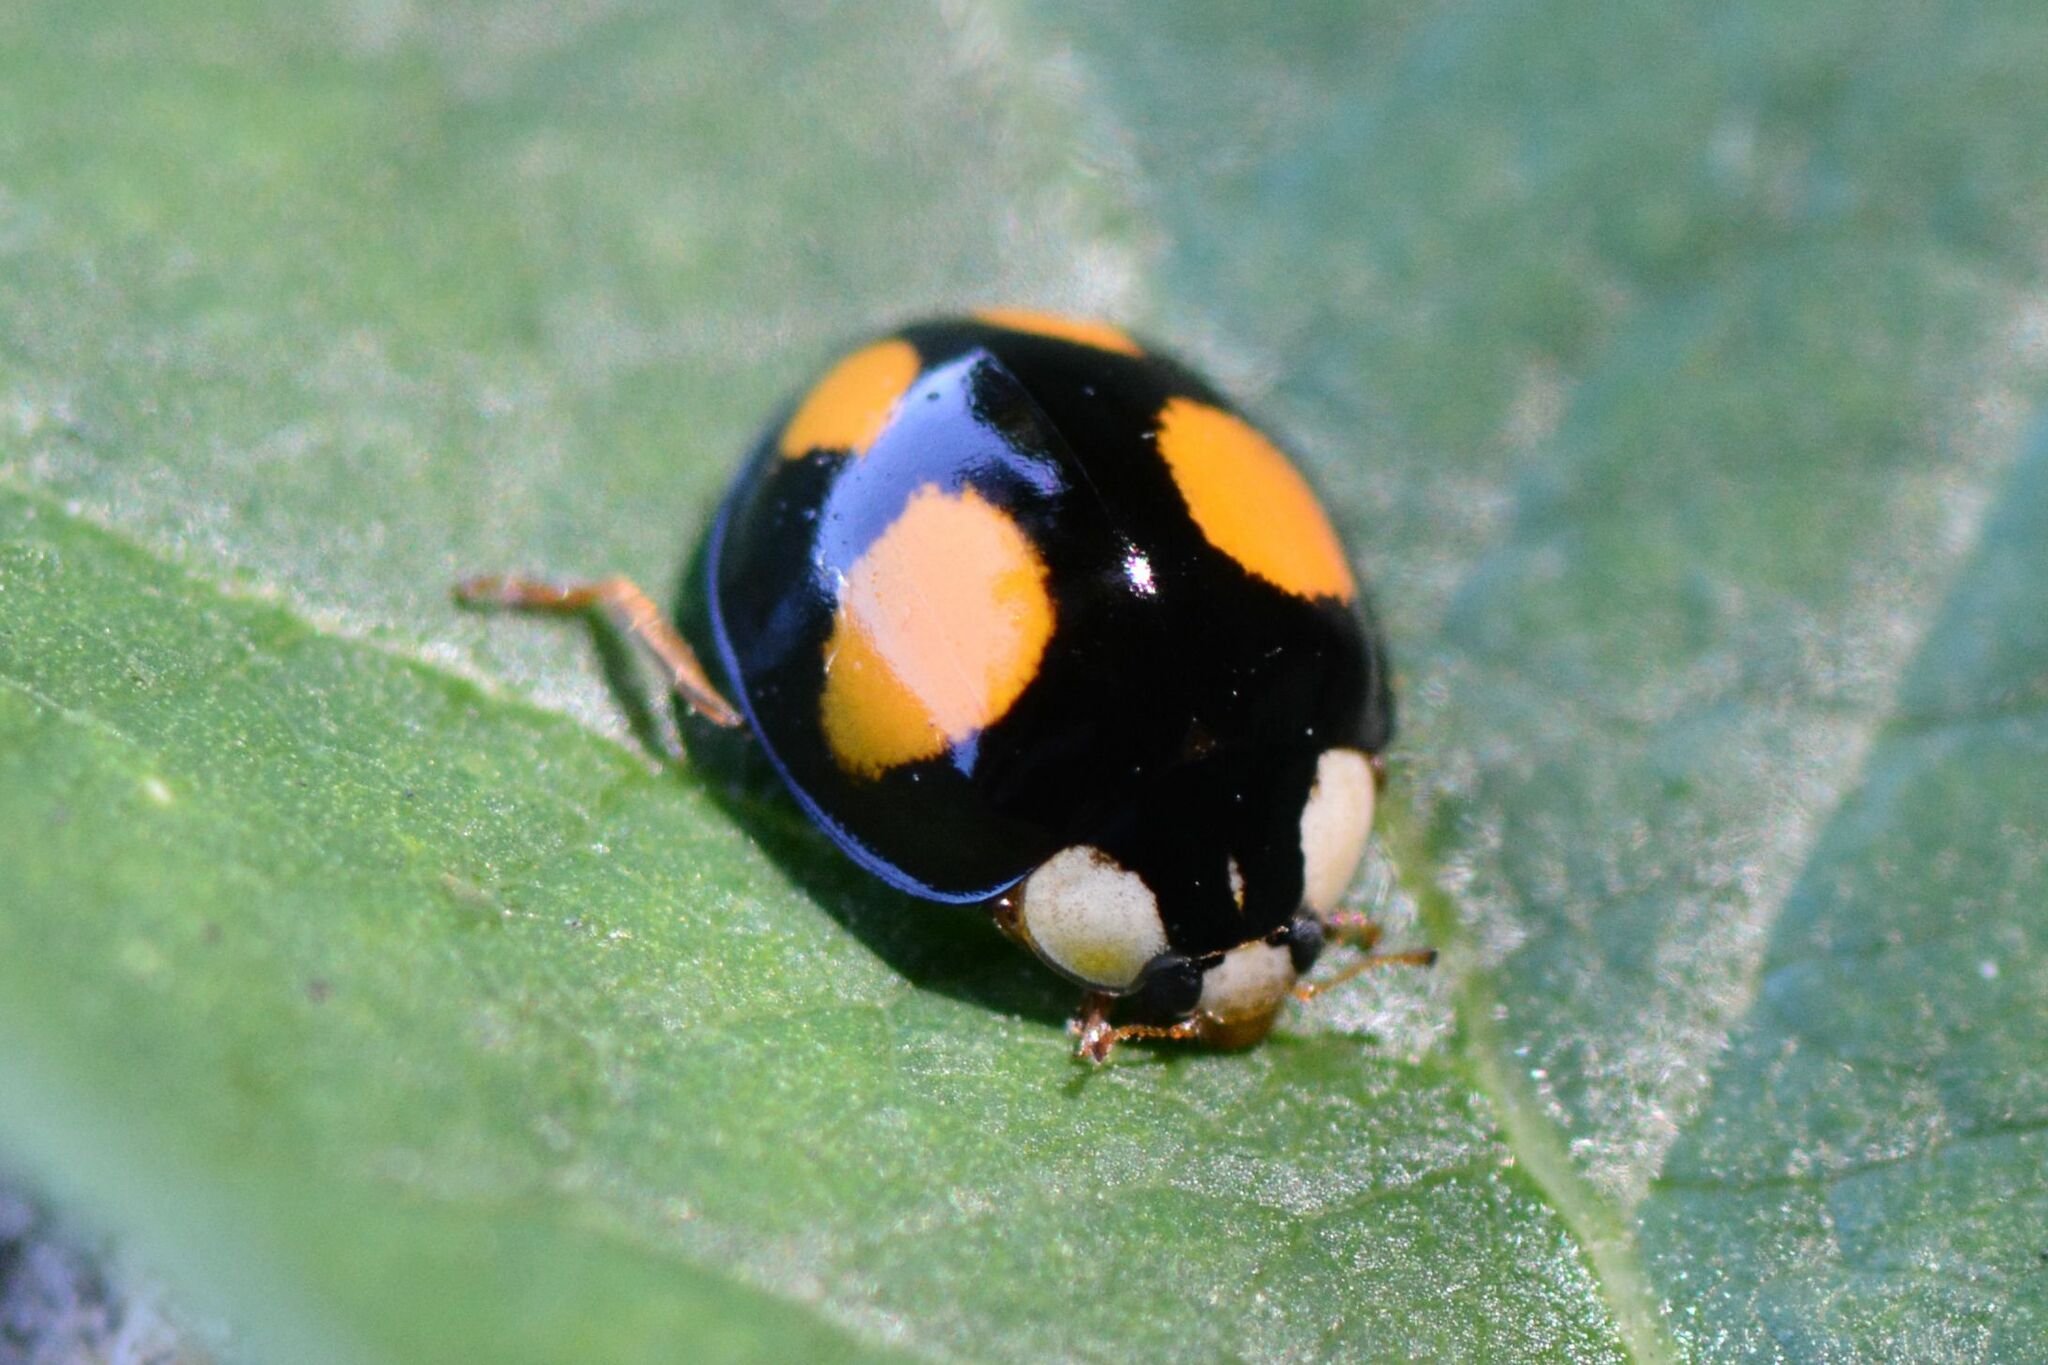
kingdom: Animalia
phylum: Arthropoda
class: Insecta
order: Coleoptera
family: Coccinellidae
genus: Harmonia
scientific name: Harmonia axyridis
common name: Harlequin ladybird
